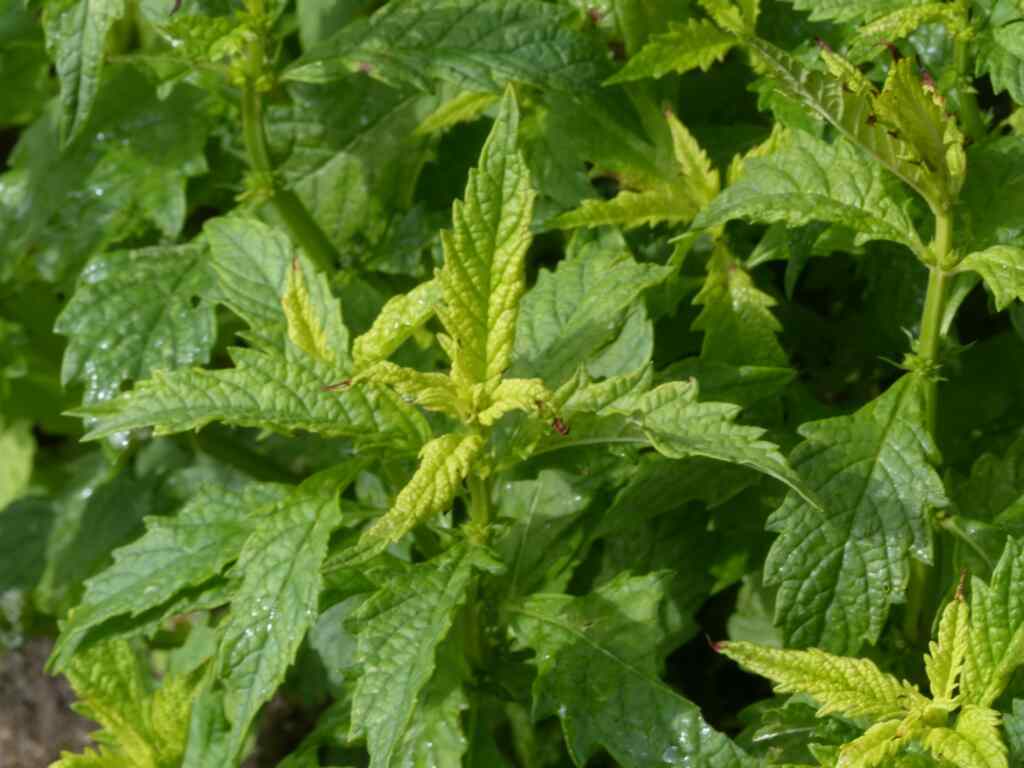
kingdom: Plantae
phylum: Tracheophyta
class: Magnoliopsida
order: Lamiales
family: Lamiaceae
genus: Lycopus
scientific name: Lycopus europaeus
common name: European bugleweed
